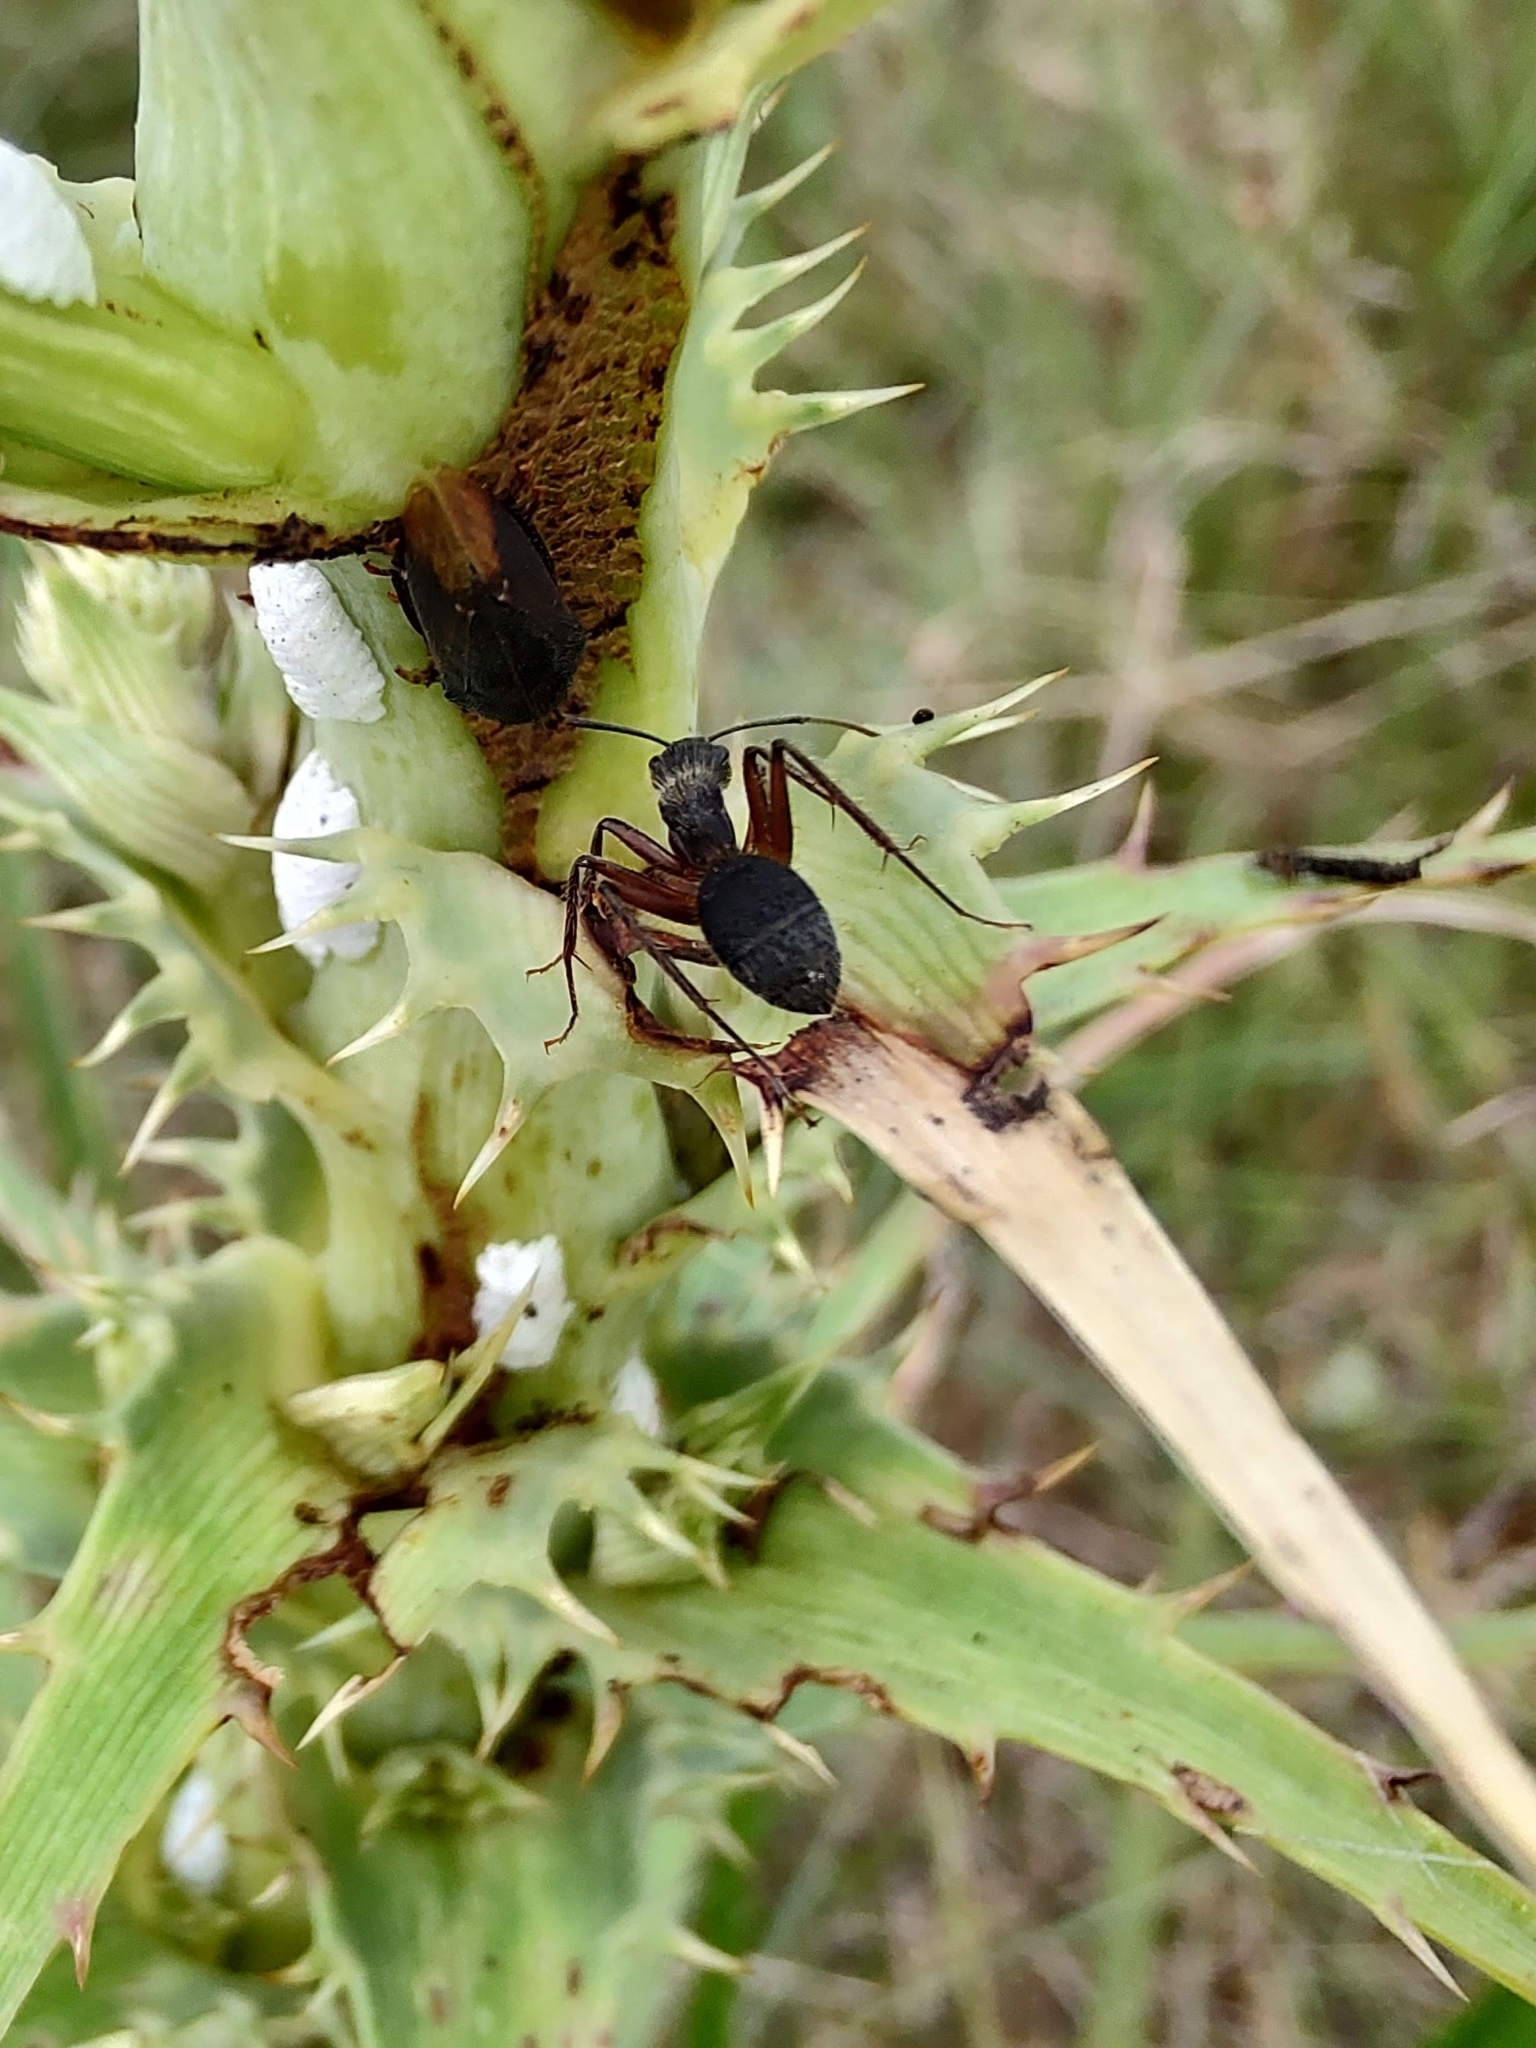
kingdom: Animalia
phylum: Arthropoda
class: Insecta
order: Hymenoptera
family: Formicidae
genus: Camponotus
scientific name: Camponotus rufipes
